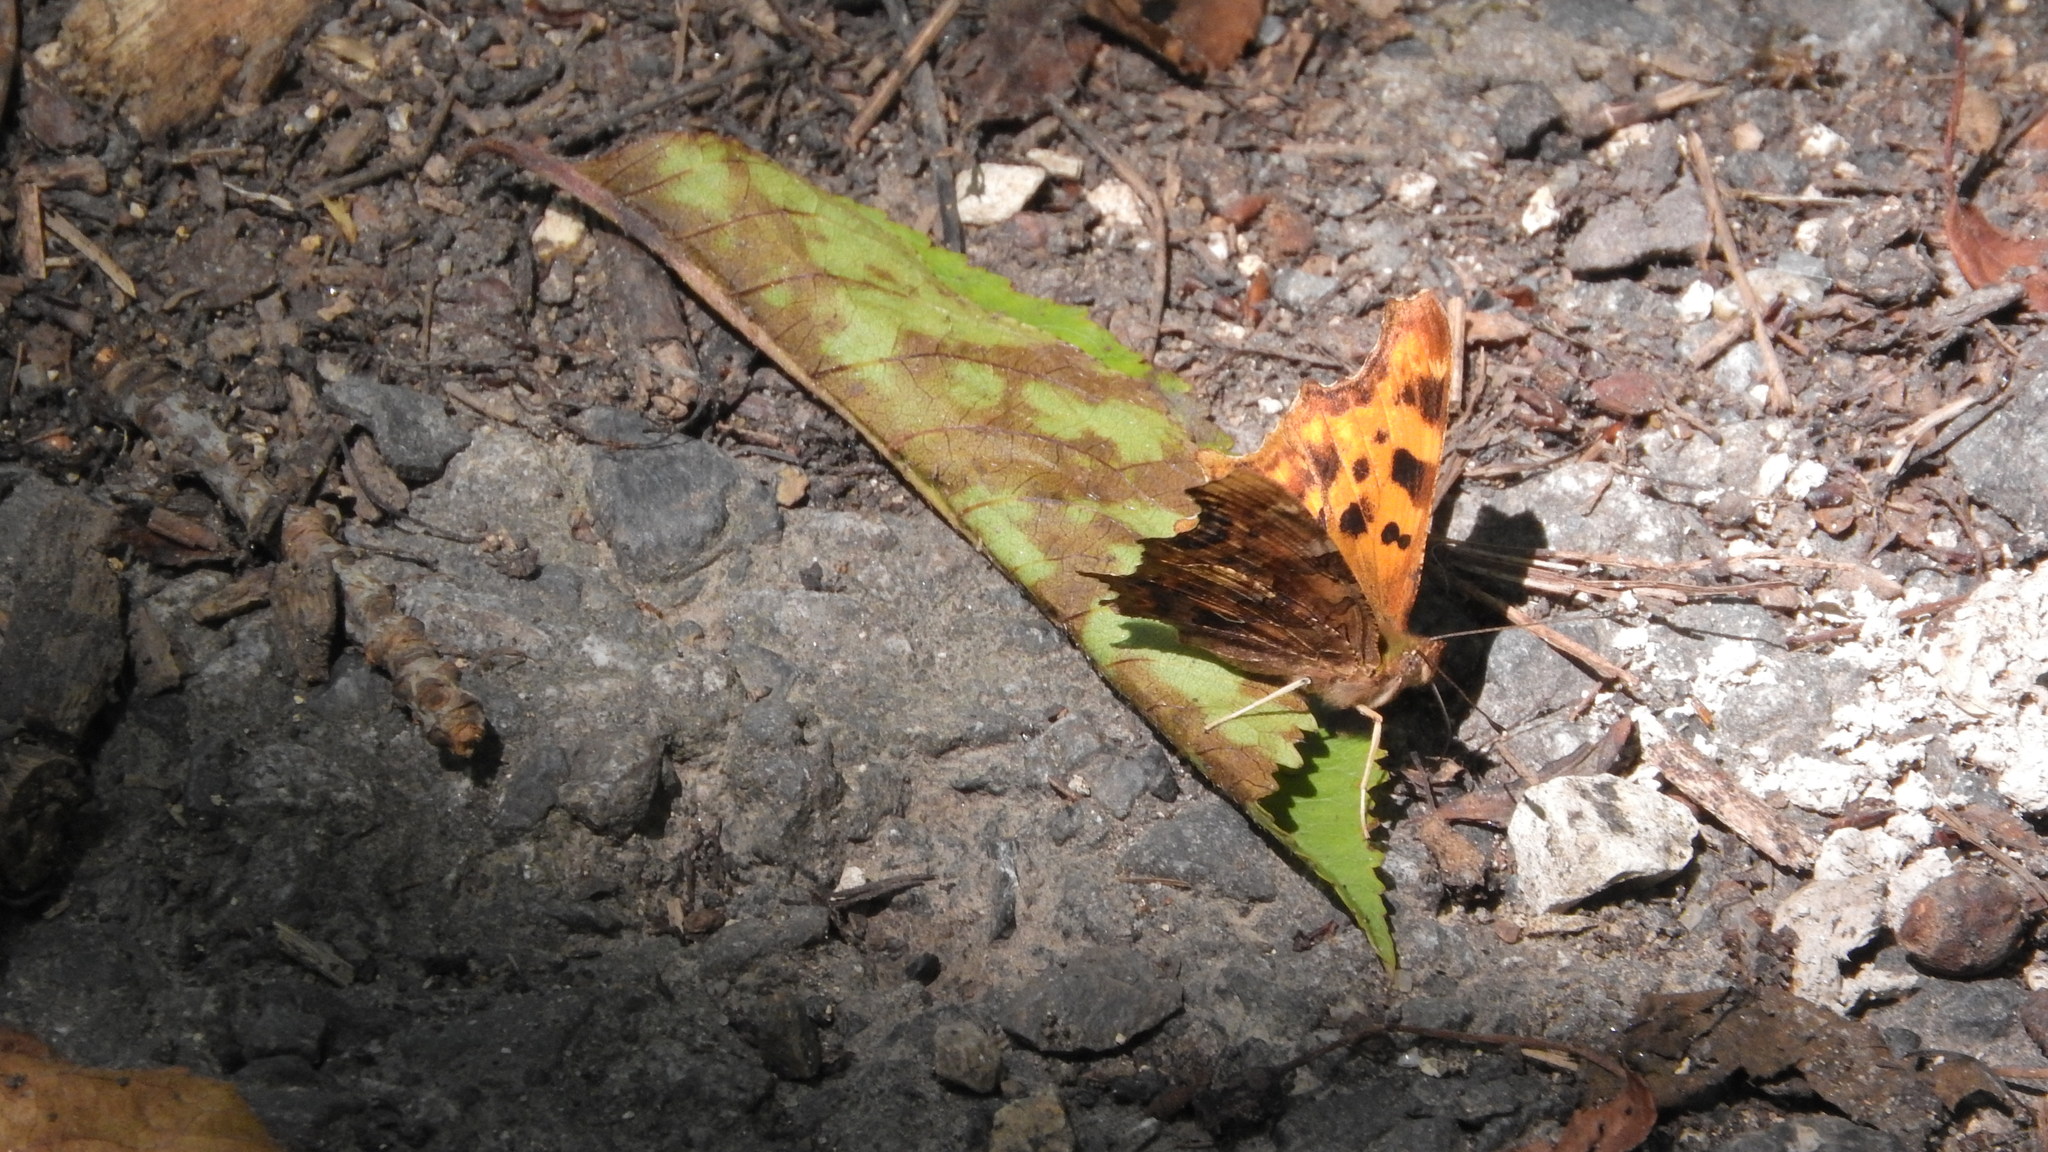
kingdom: Animalia
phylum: Arthropoda
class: Insecta
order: Lepidoptera
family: Nymphalidae
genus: Polygonia
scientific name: Polygonia c-album
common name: Comma
